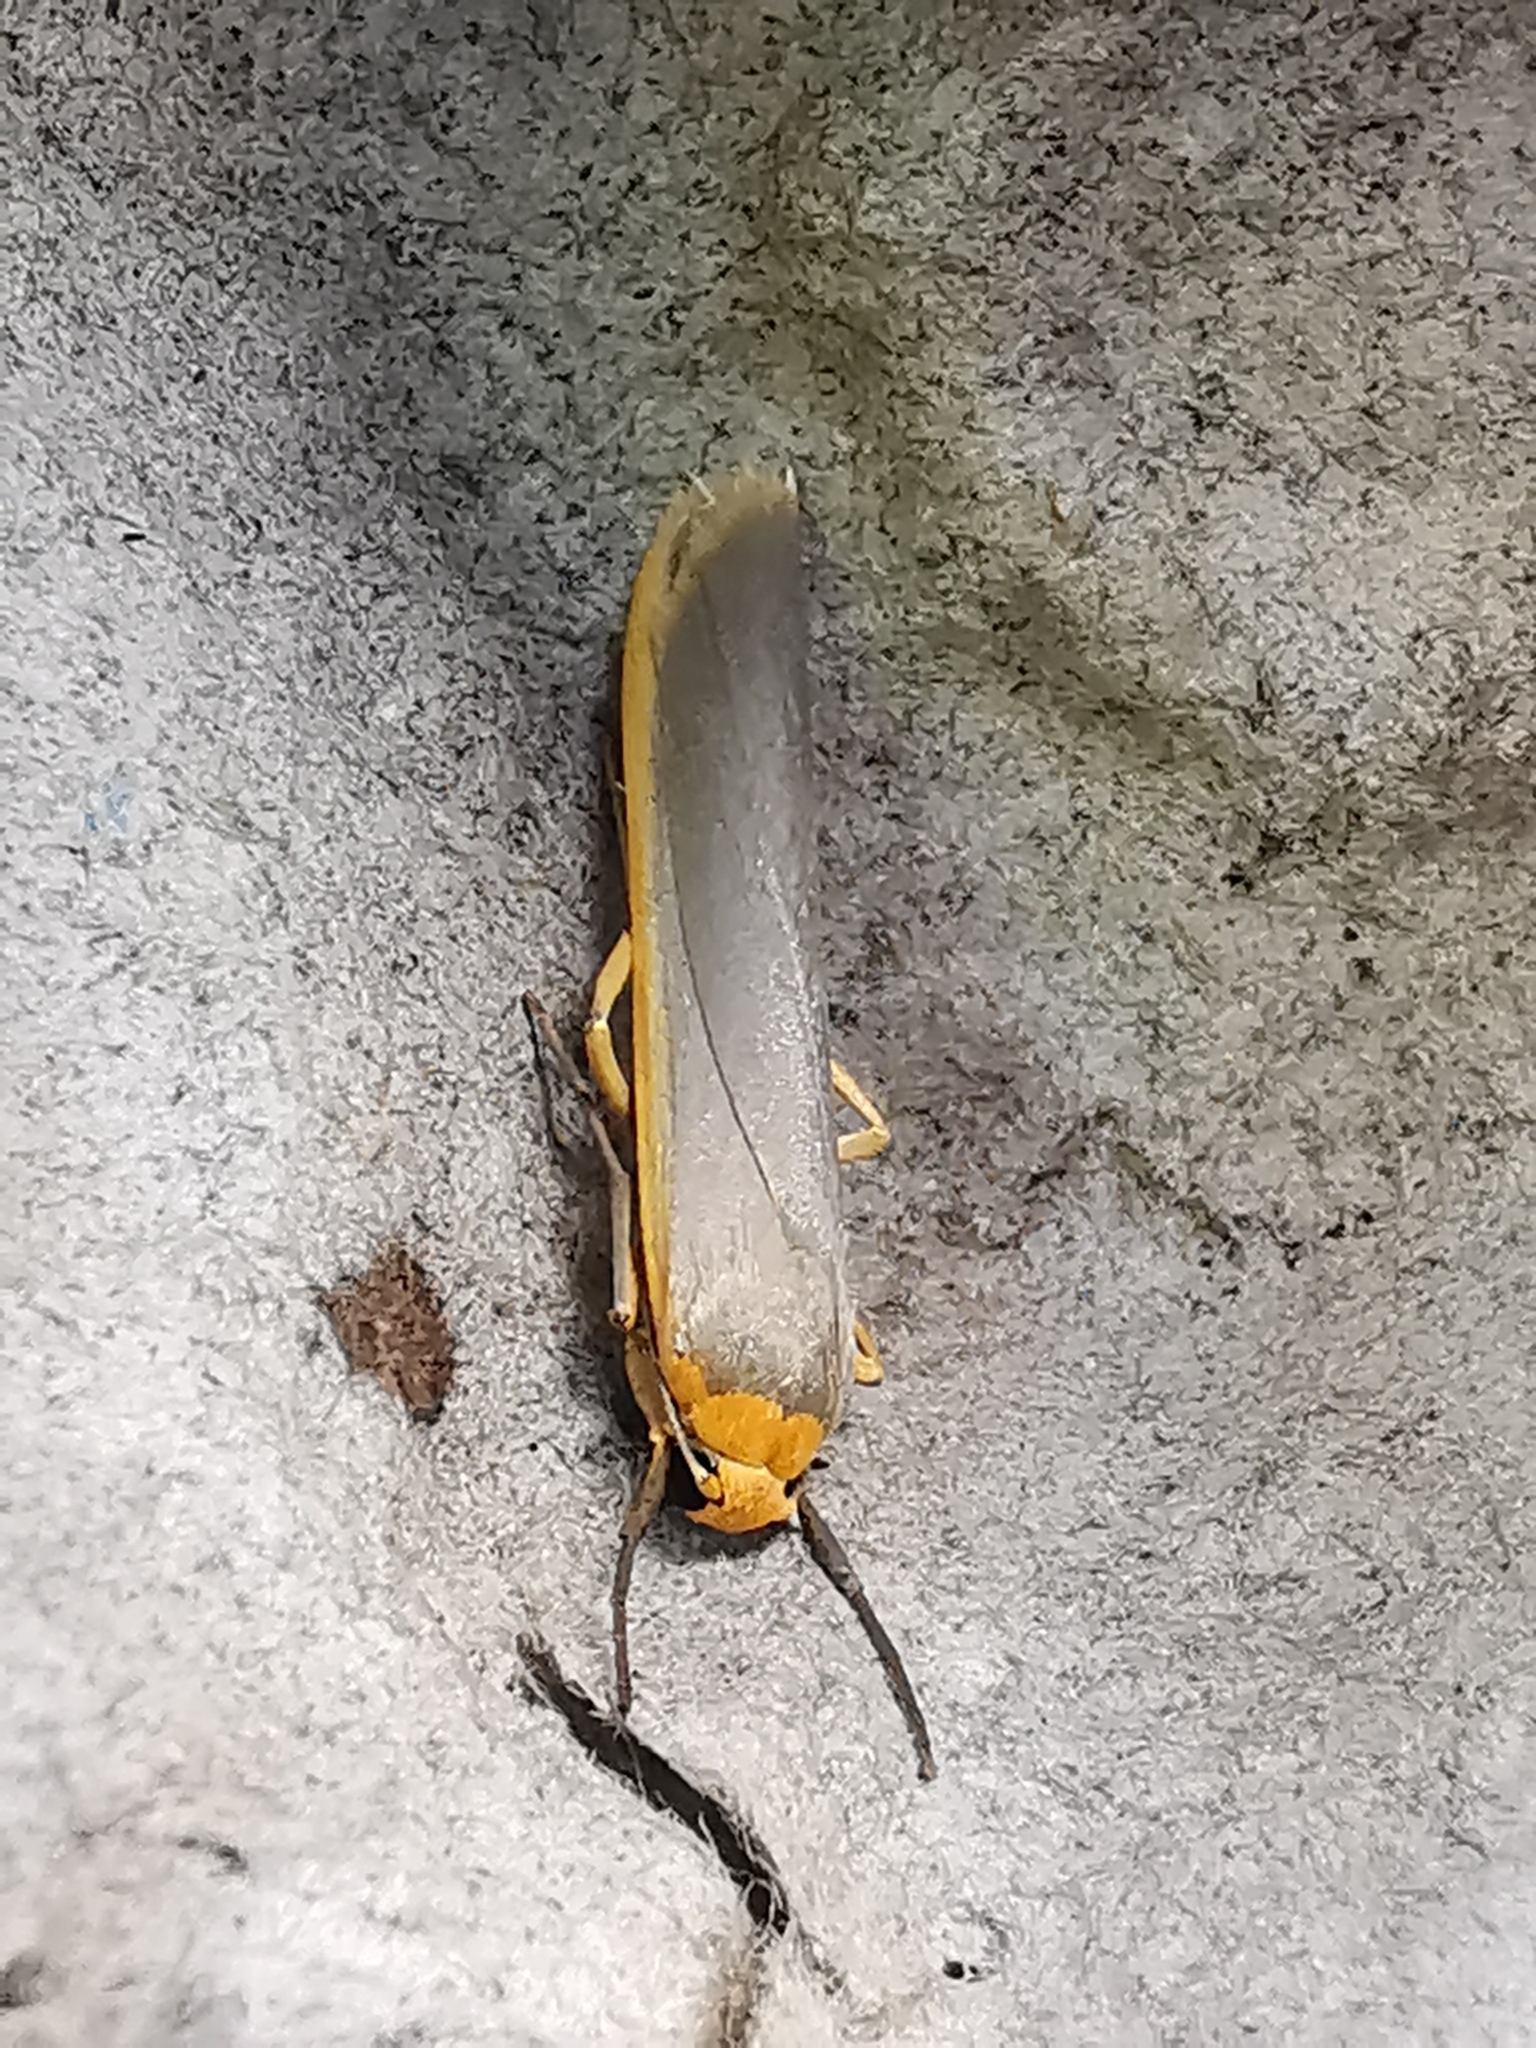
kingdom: Animalia
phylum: Arthropoda
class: Insecta
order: Lepidoptera
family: Erebidae
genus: Manulea
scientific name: Manulea complana
